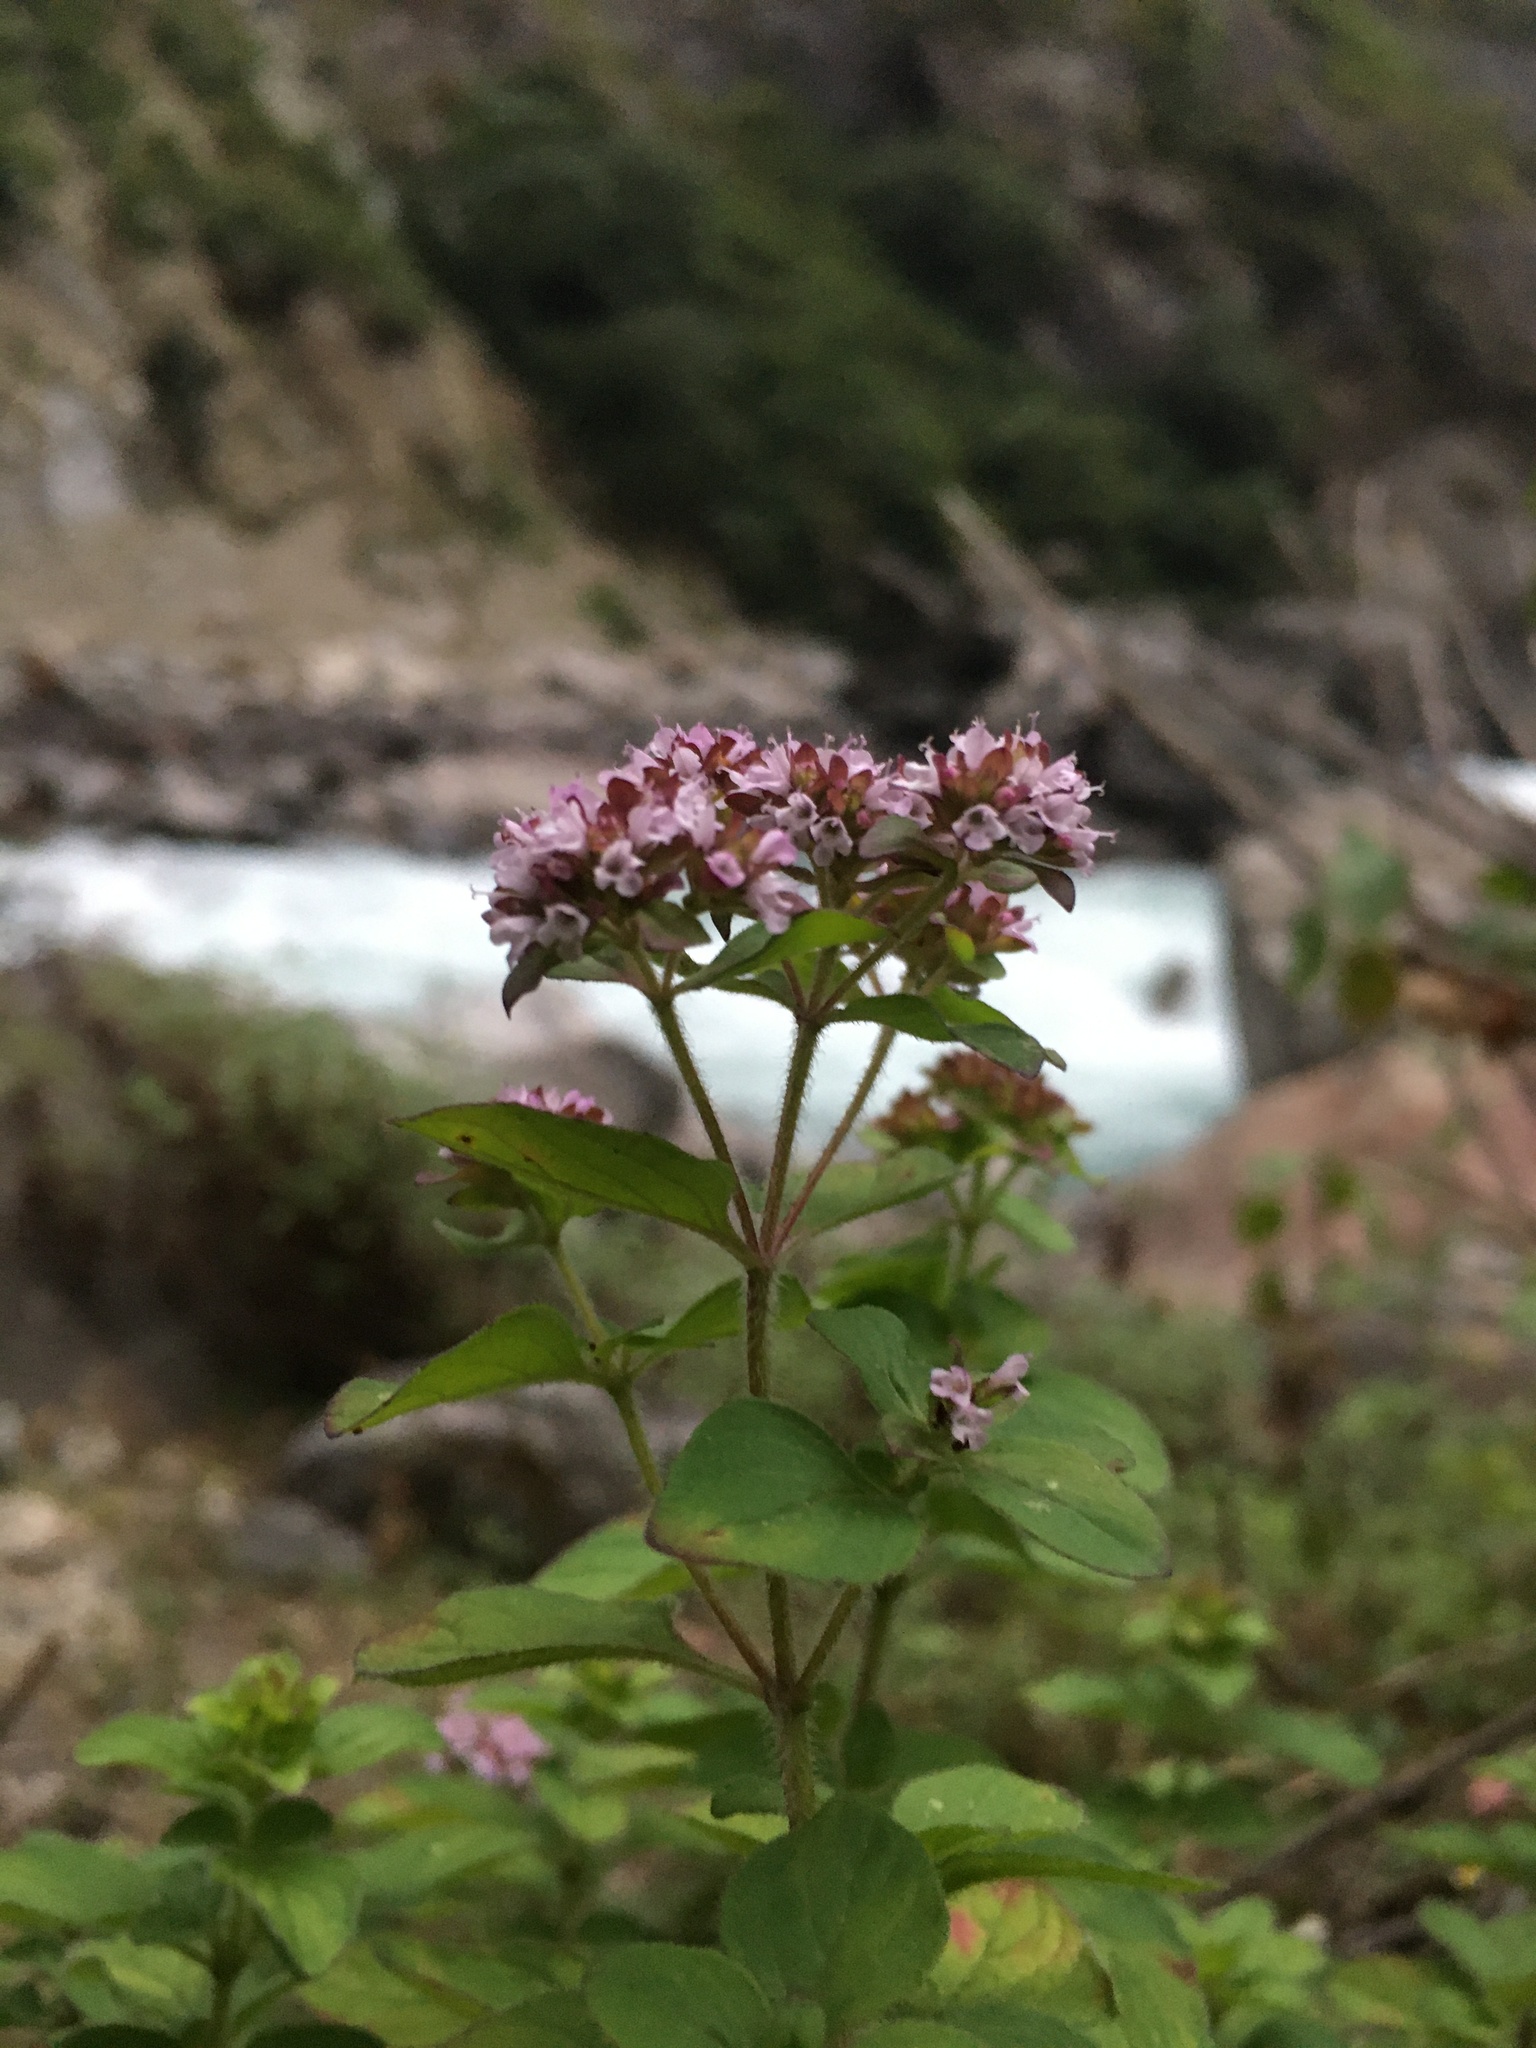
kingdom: Plantae
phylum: Tracheophyta
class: Magnoliopsida
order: Lamiales
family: Lamiaceae
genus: Origanum
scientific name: Origanum vulgare
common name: Wild marjoram
